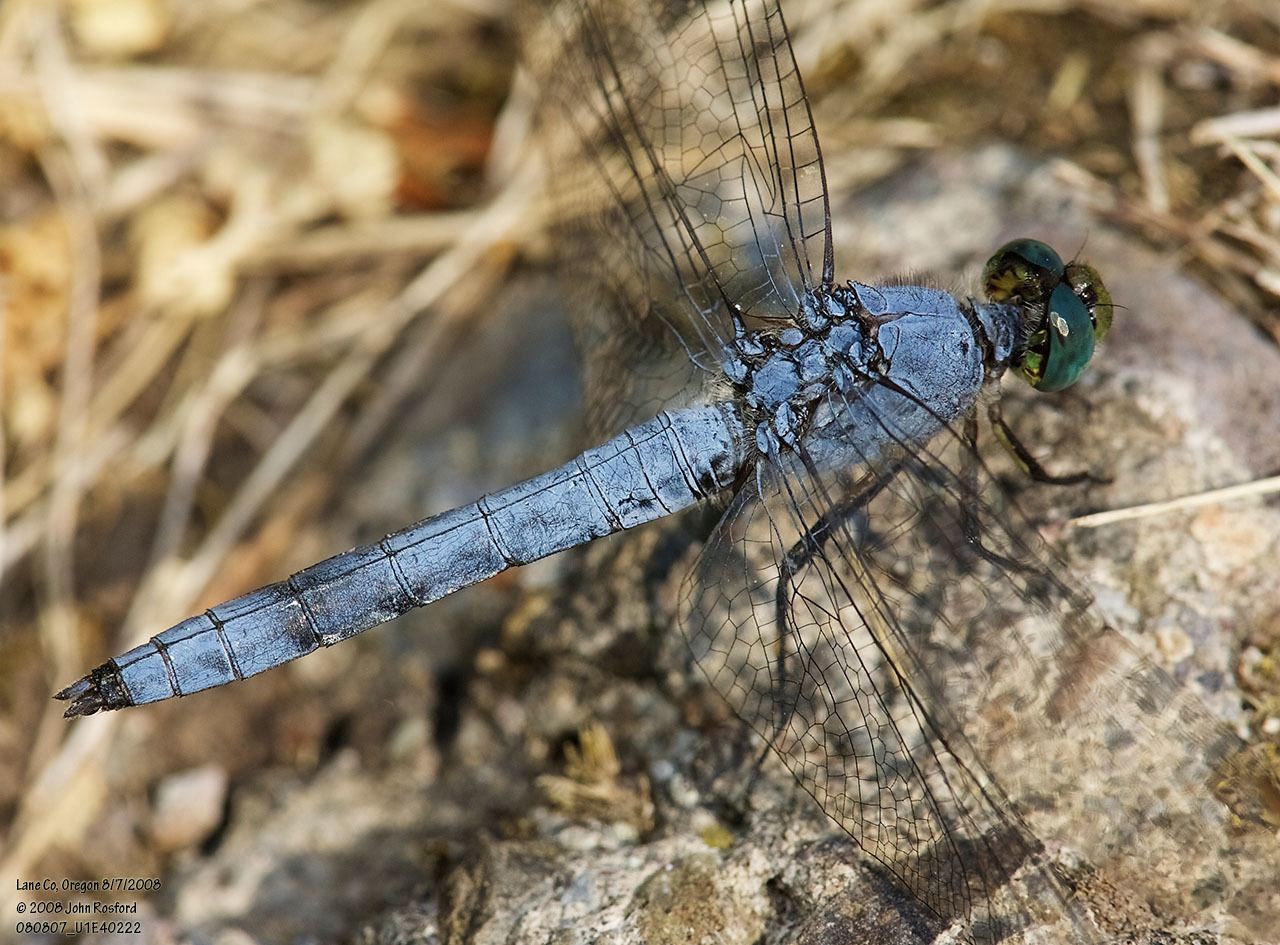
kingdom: Animalia
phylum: Arthropoda
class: Insecta
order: Odonata
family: Libellulidae
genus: Erythemis
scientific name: Erythemis collocata
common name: Western pondhawk
